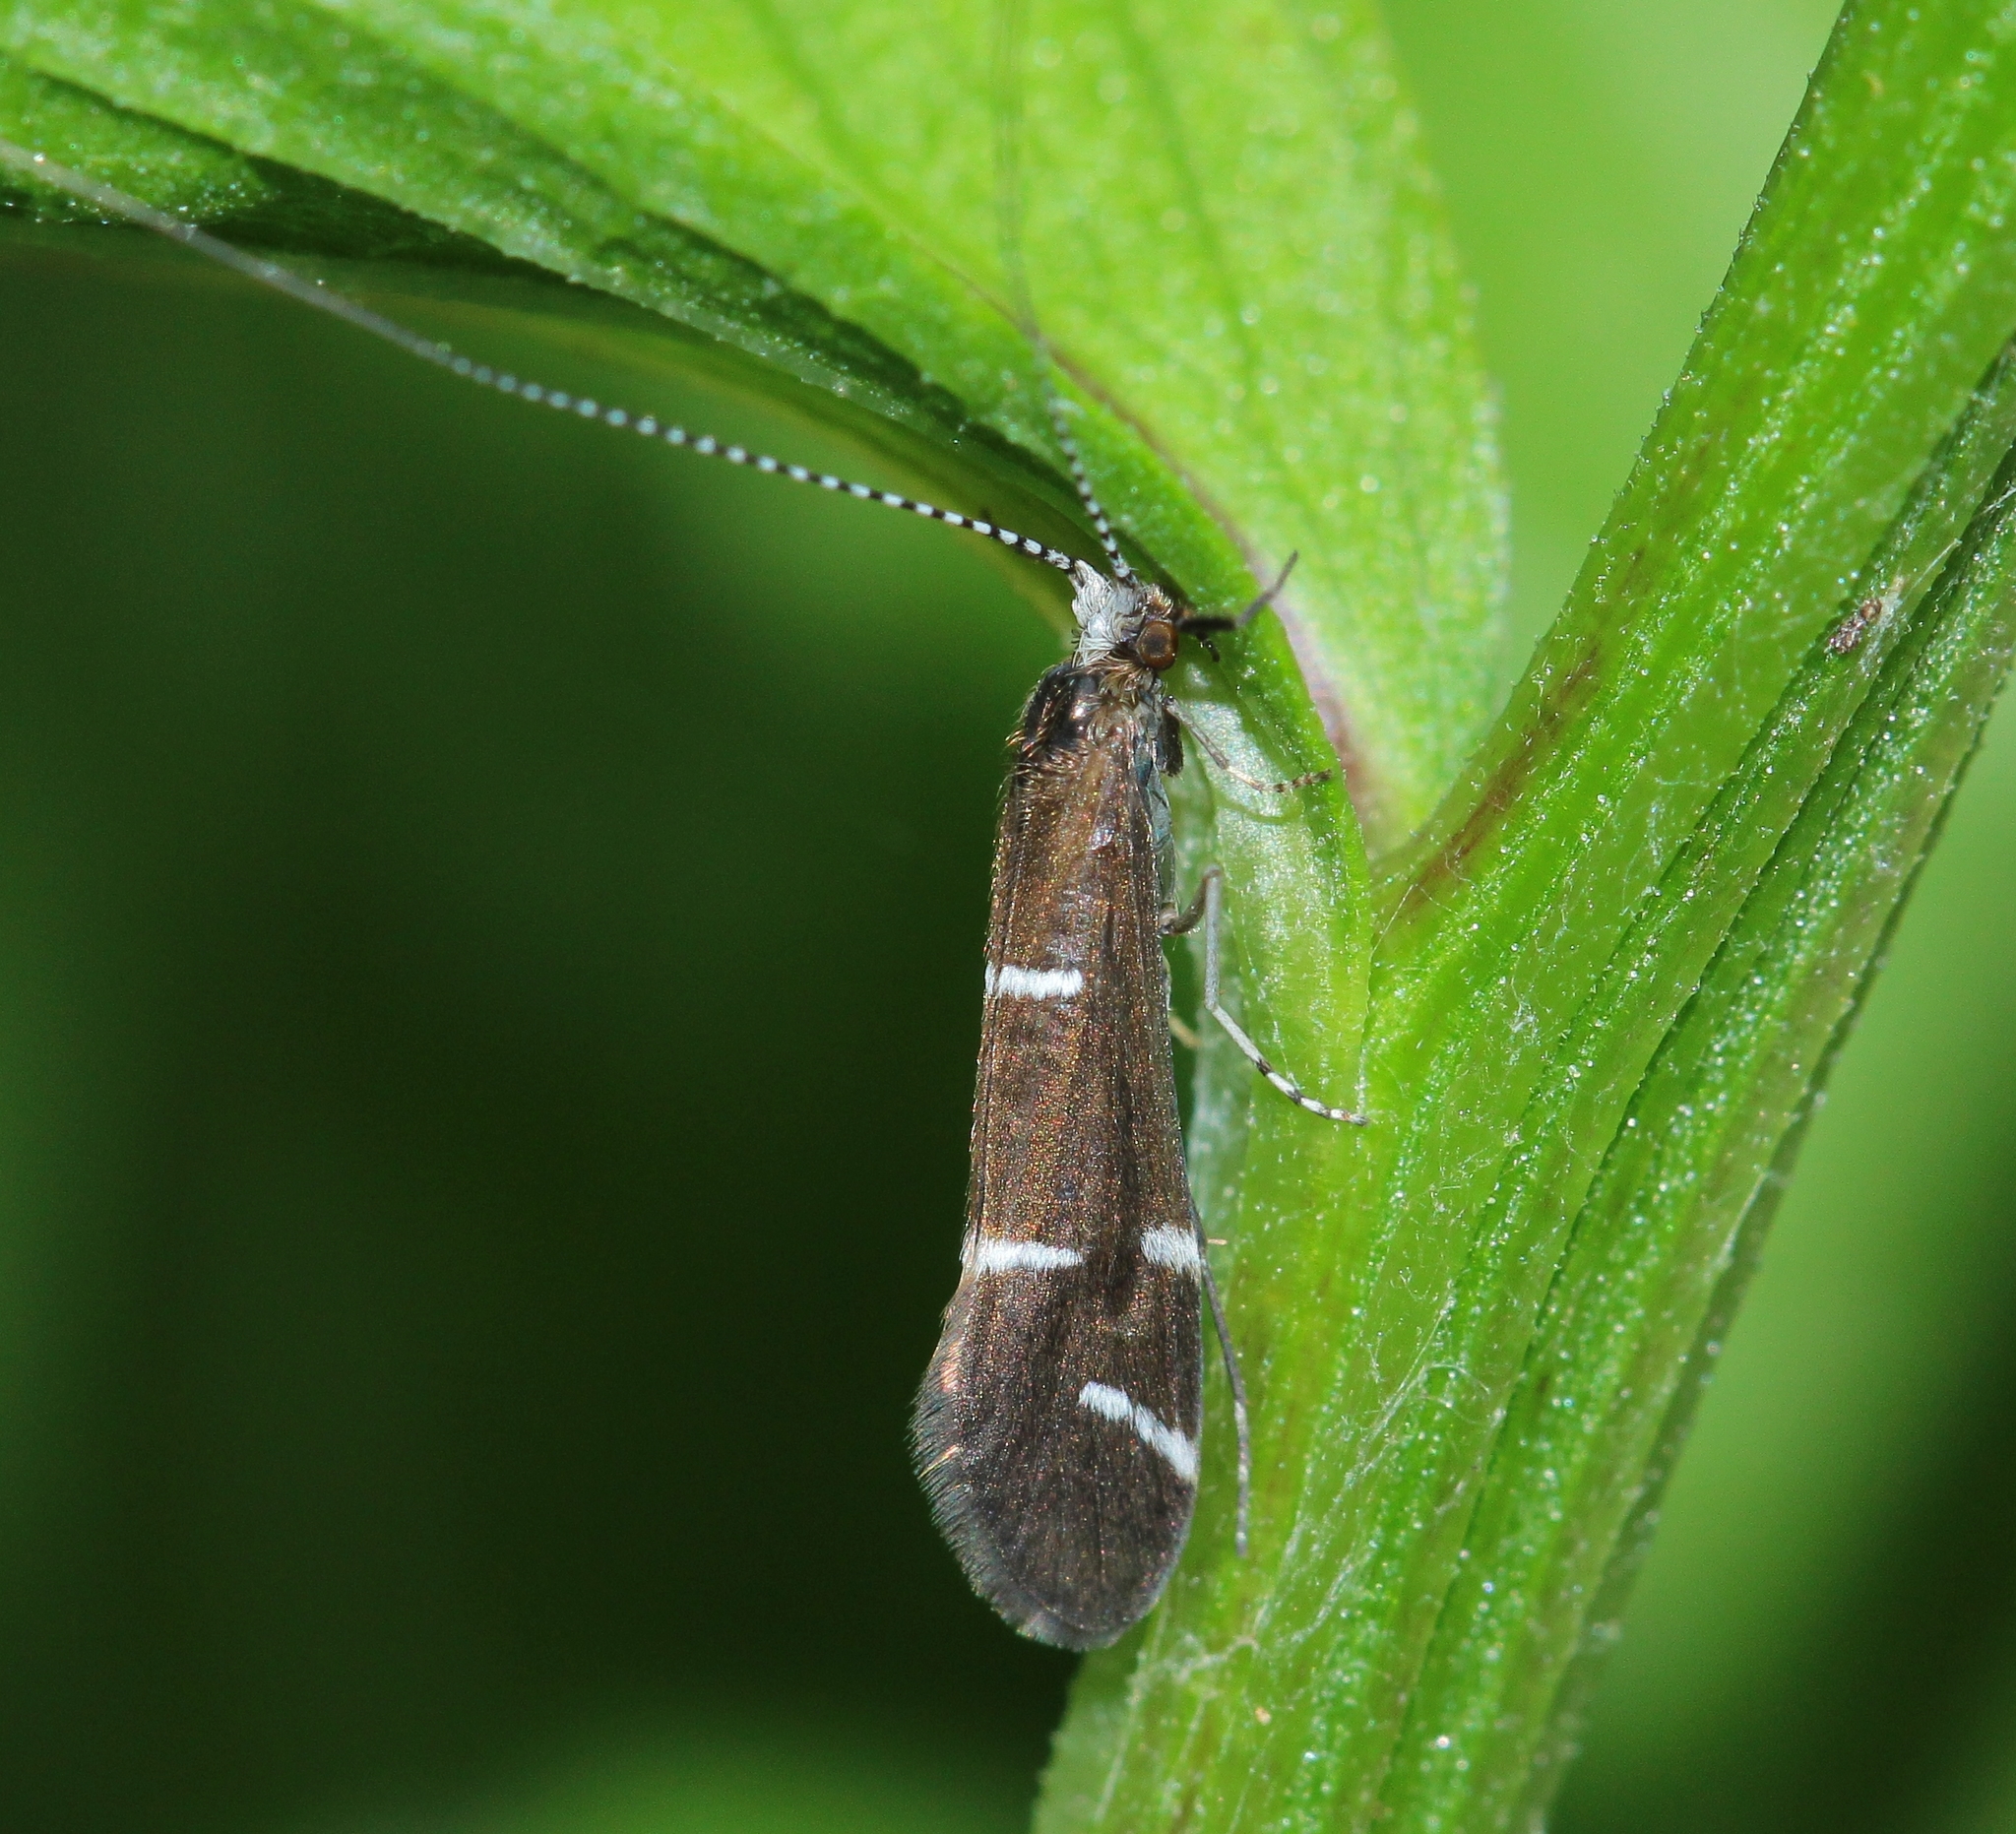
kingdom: Animalia
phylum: Arthropoda
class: Insecta
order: Trichoptera
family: Leptoceridae
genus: Athripsodes
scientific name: Athripsodes albifrons
